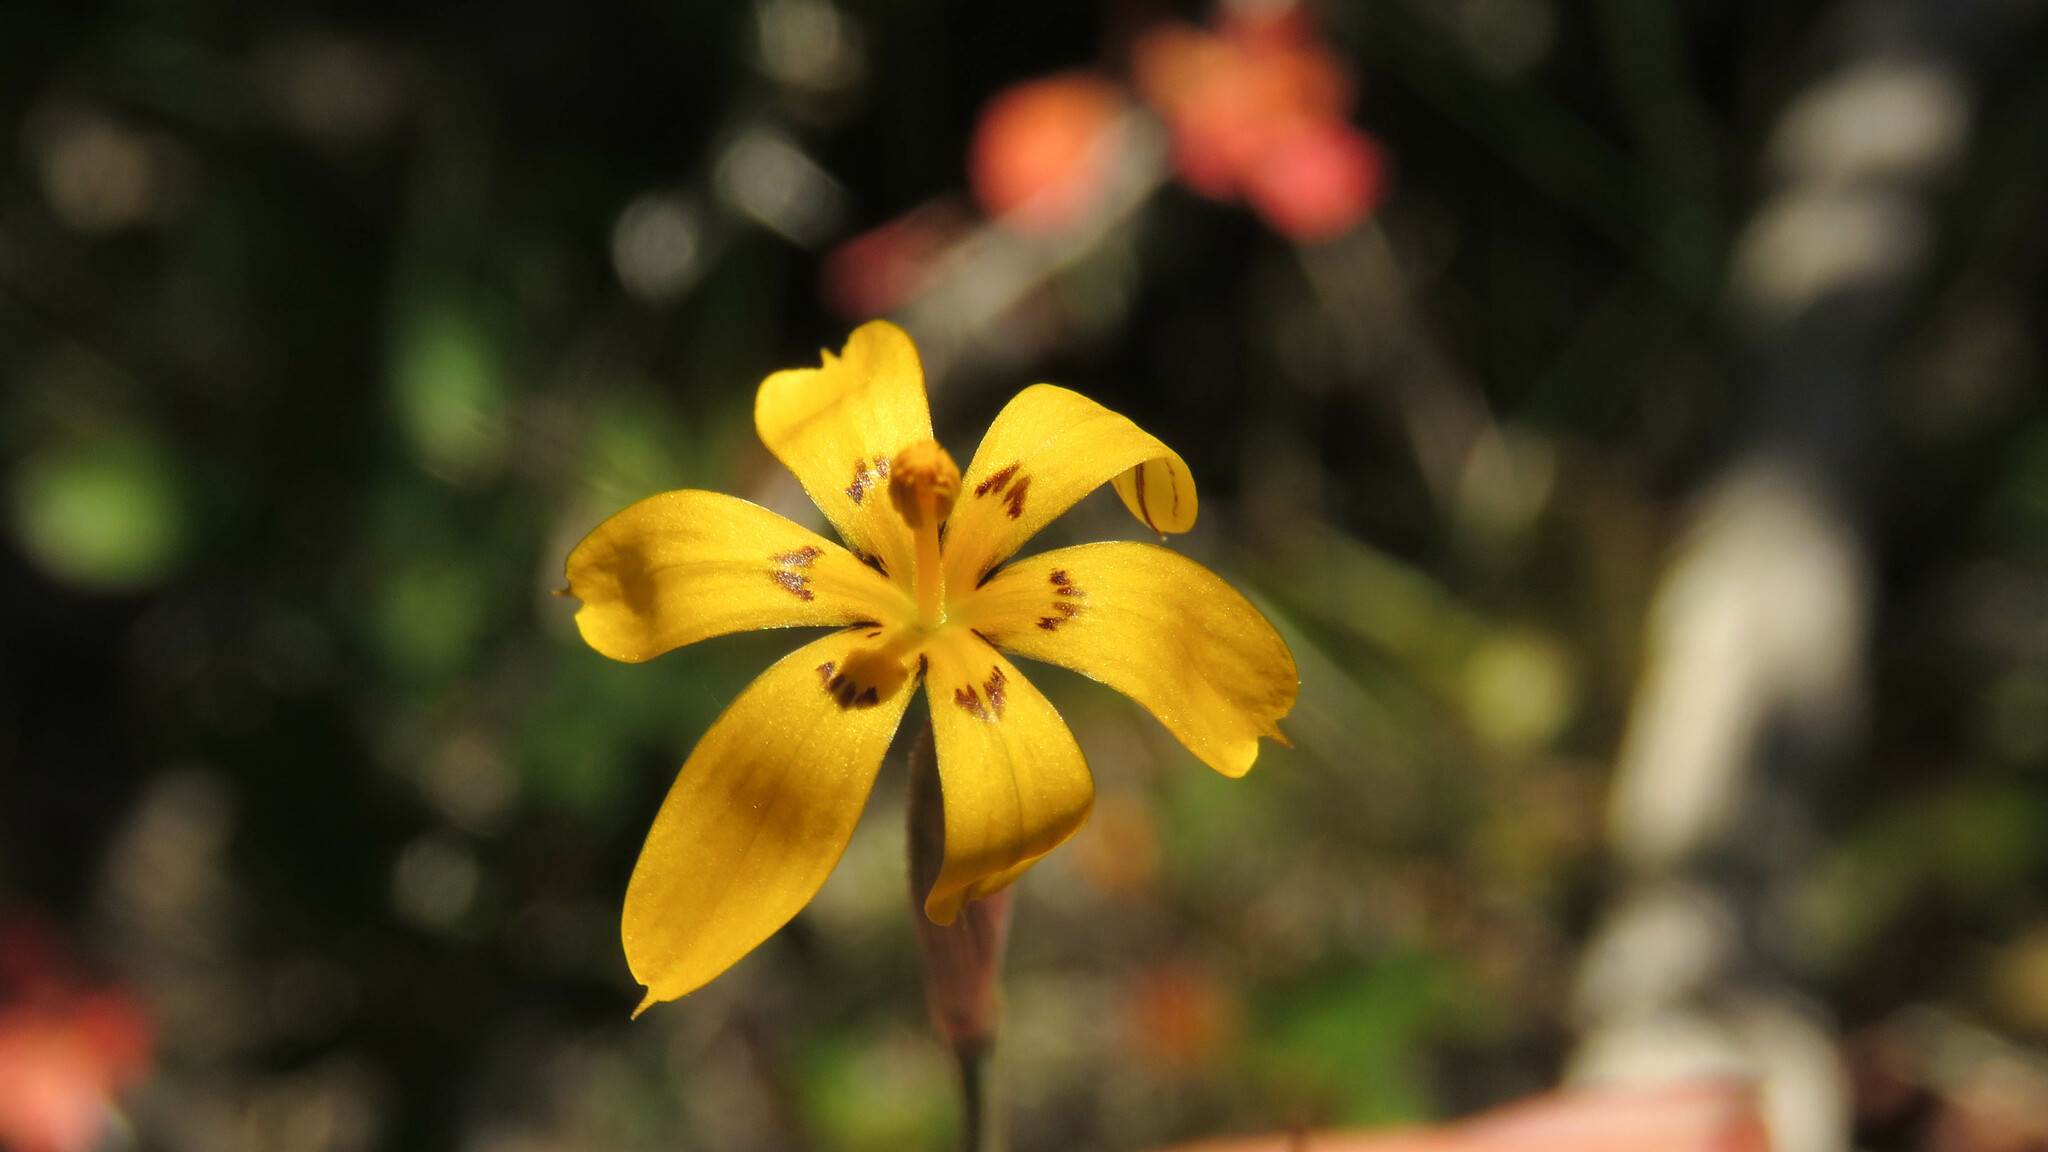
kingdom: Plantae
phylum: Tracheophyta
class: Liliopsida
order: Asparagales
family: Iridaceae
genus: Sisyrinchium
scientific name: Sisyrinchium patagonicum
